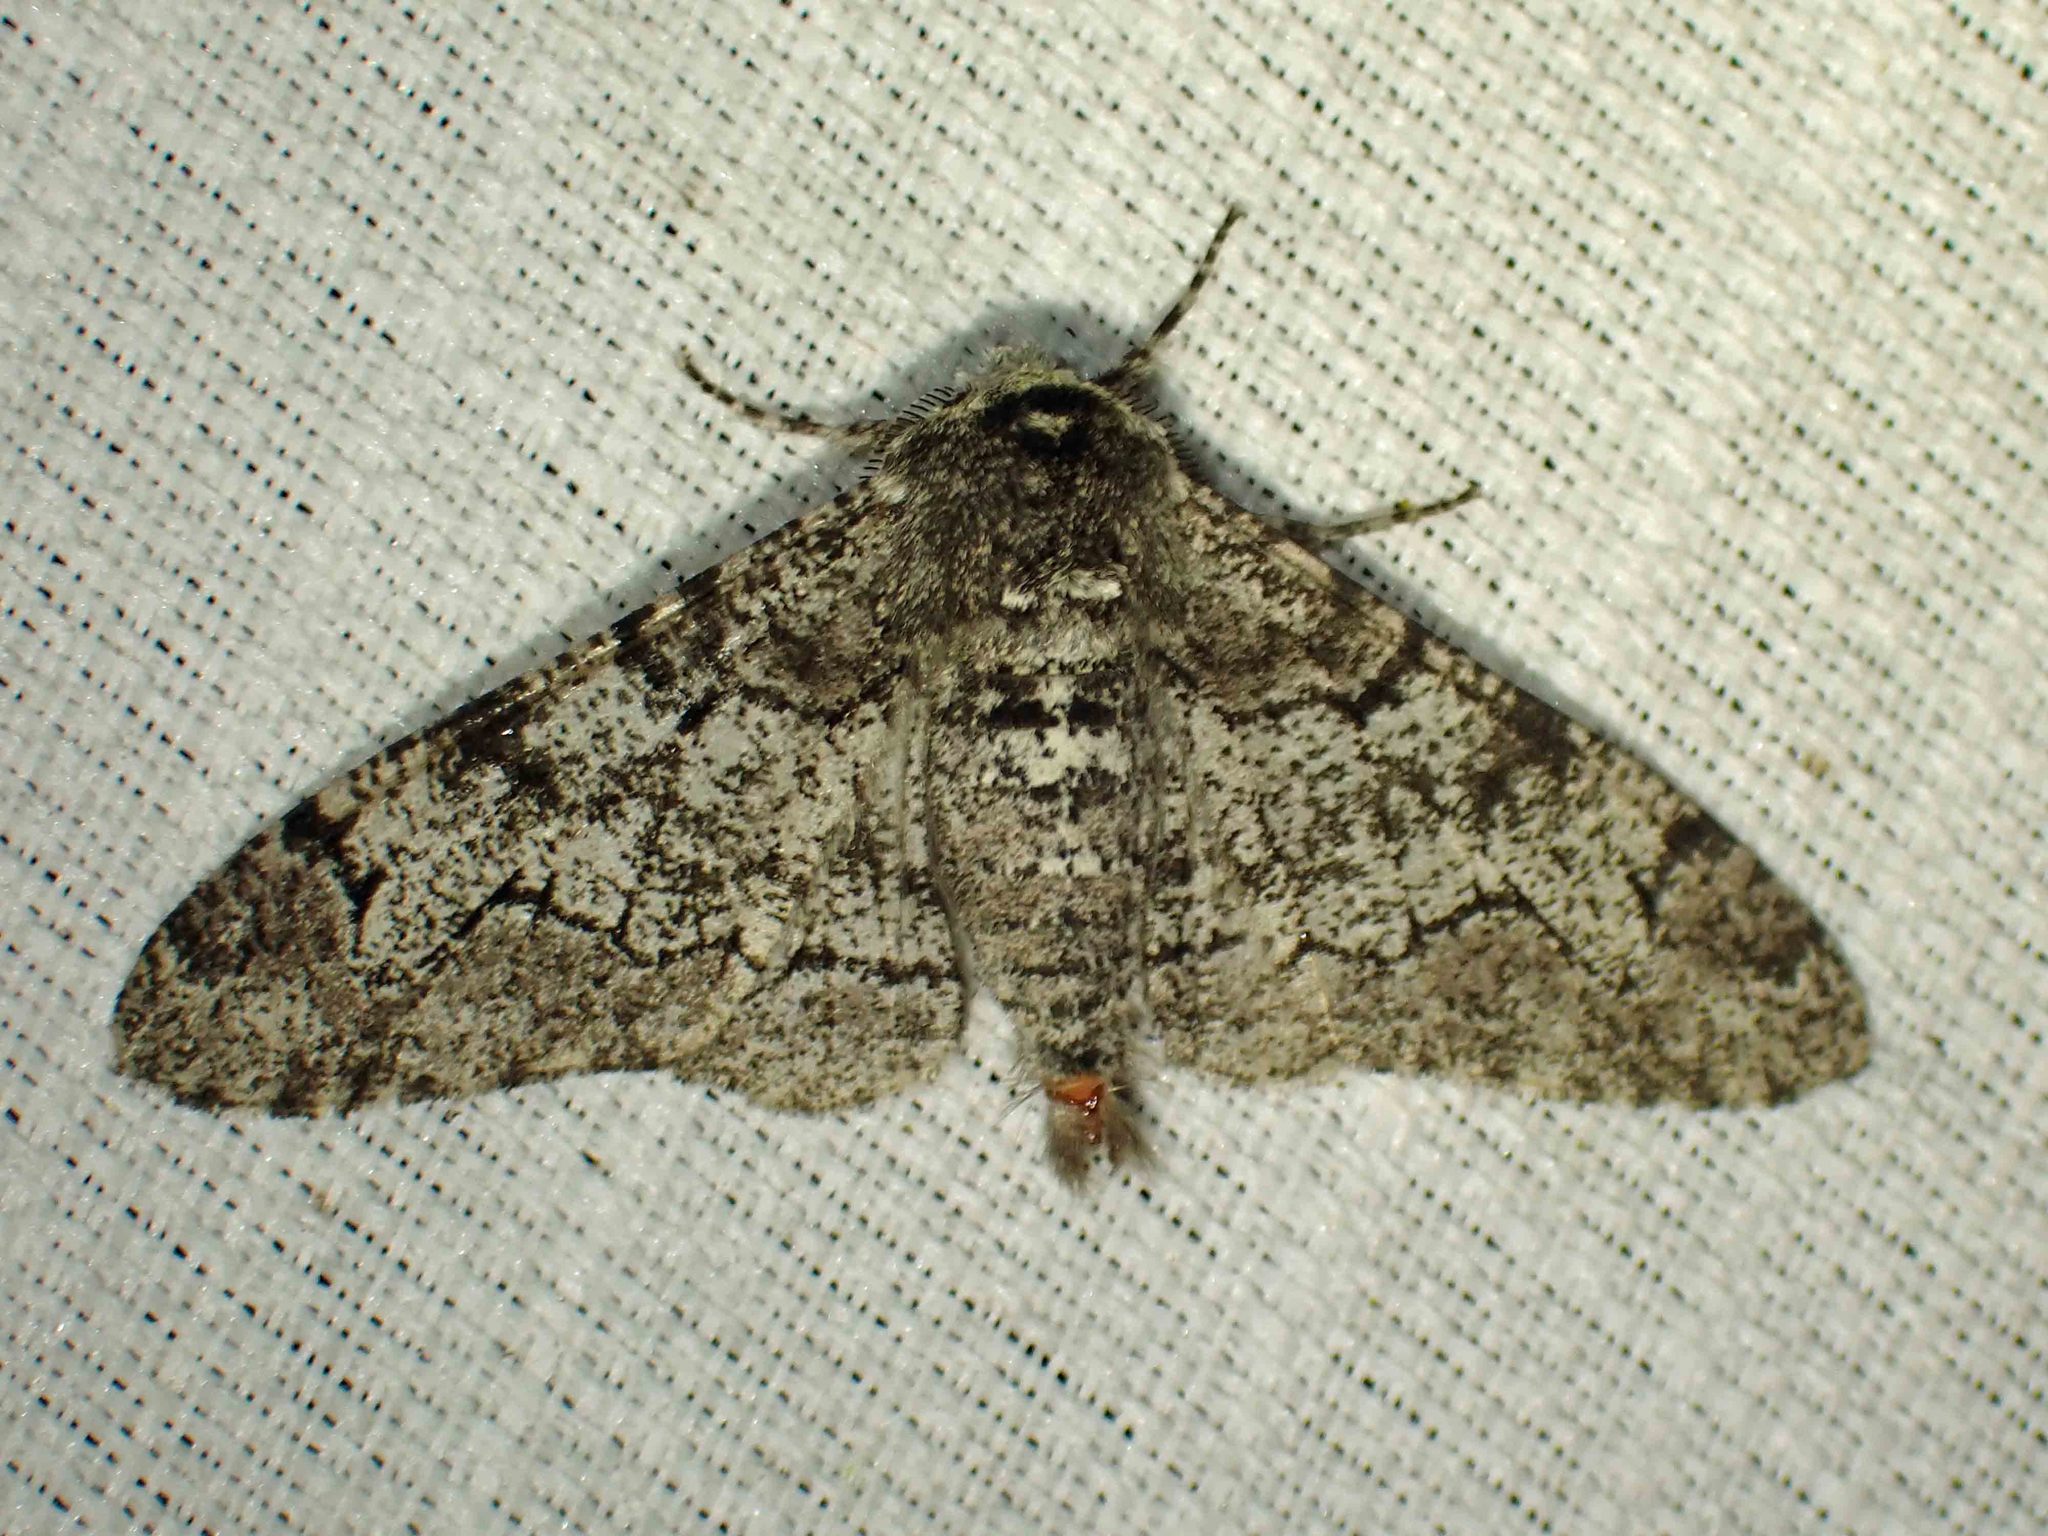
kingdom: Animalia
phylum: Arthropoda
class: Insecta
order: Lepidoptera
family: Geometridae
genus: Biston
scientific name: Biston betularia
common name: Peppered moth
